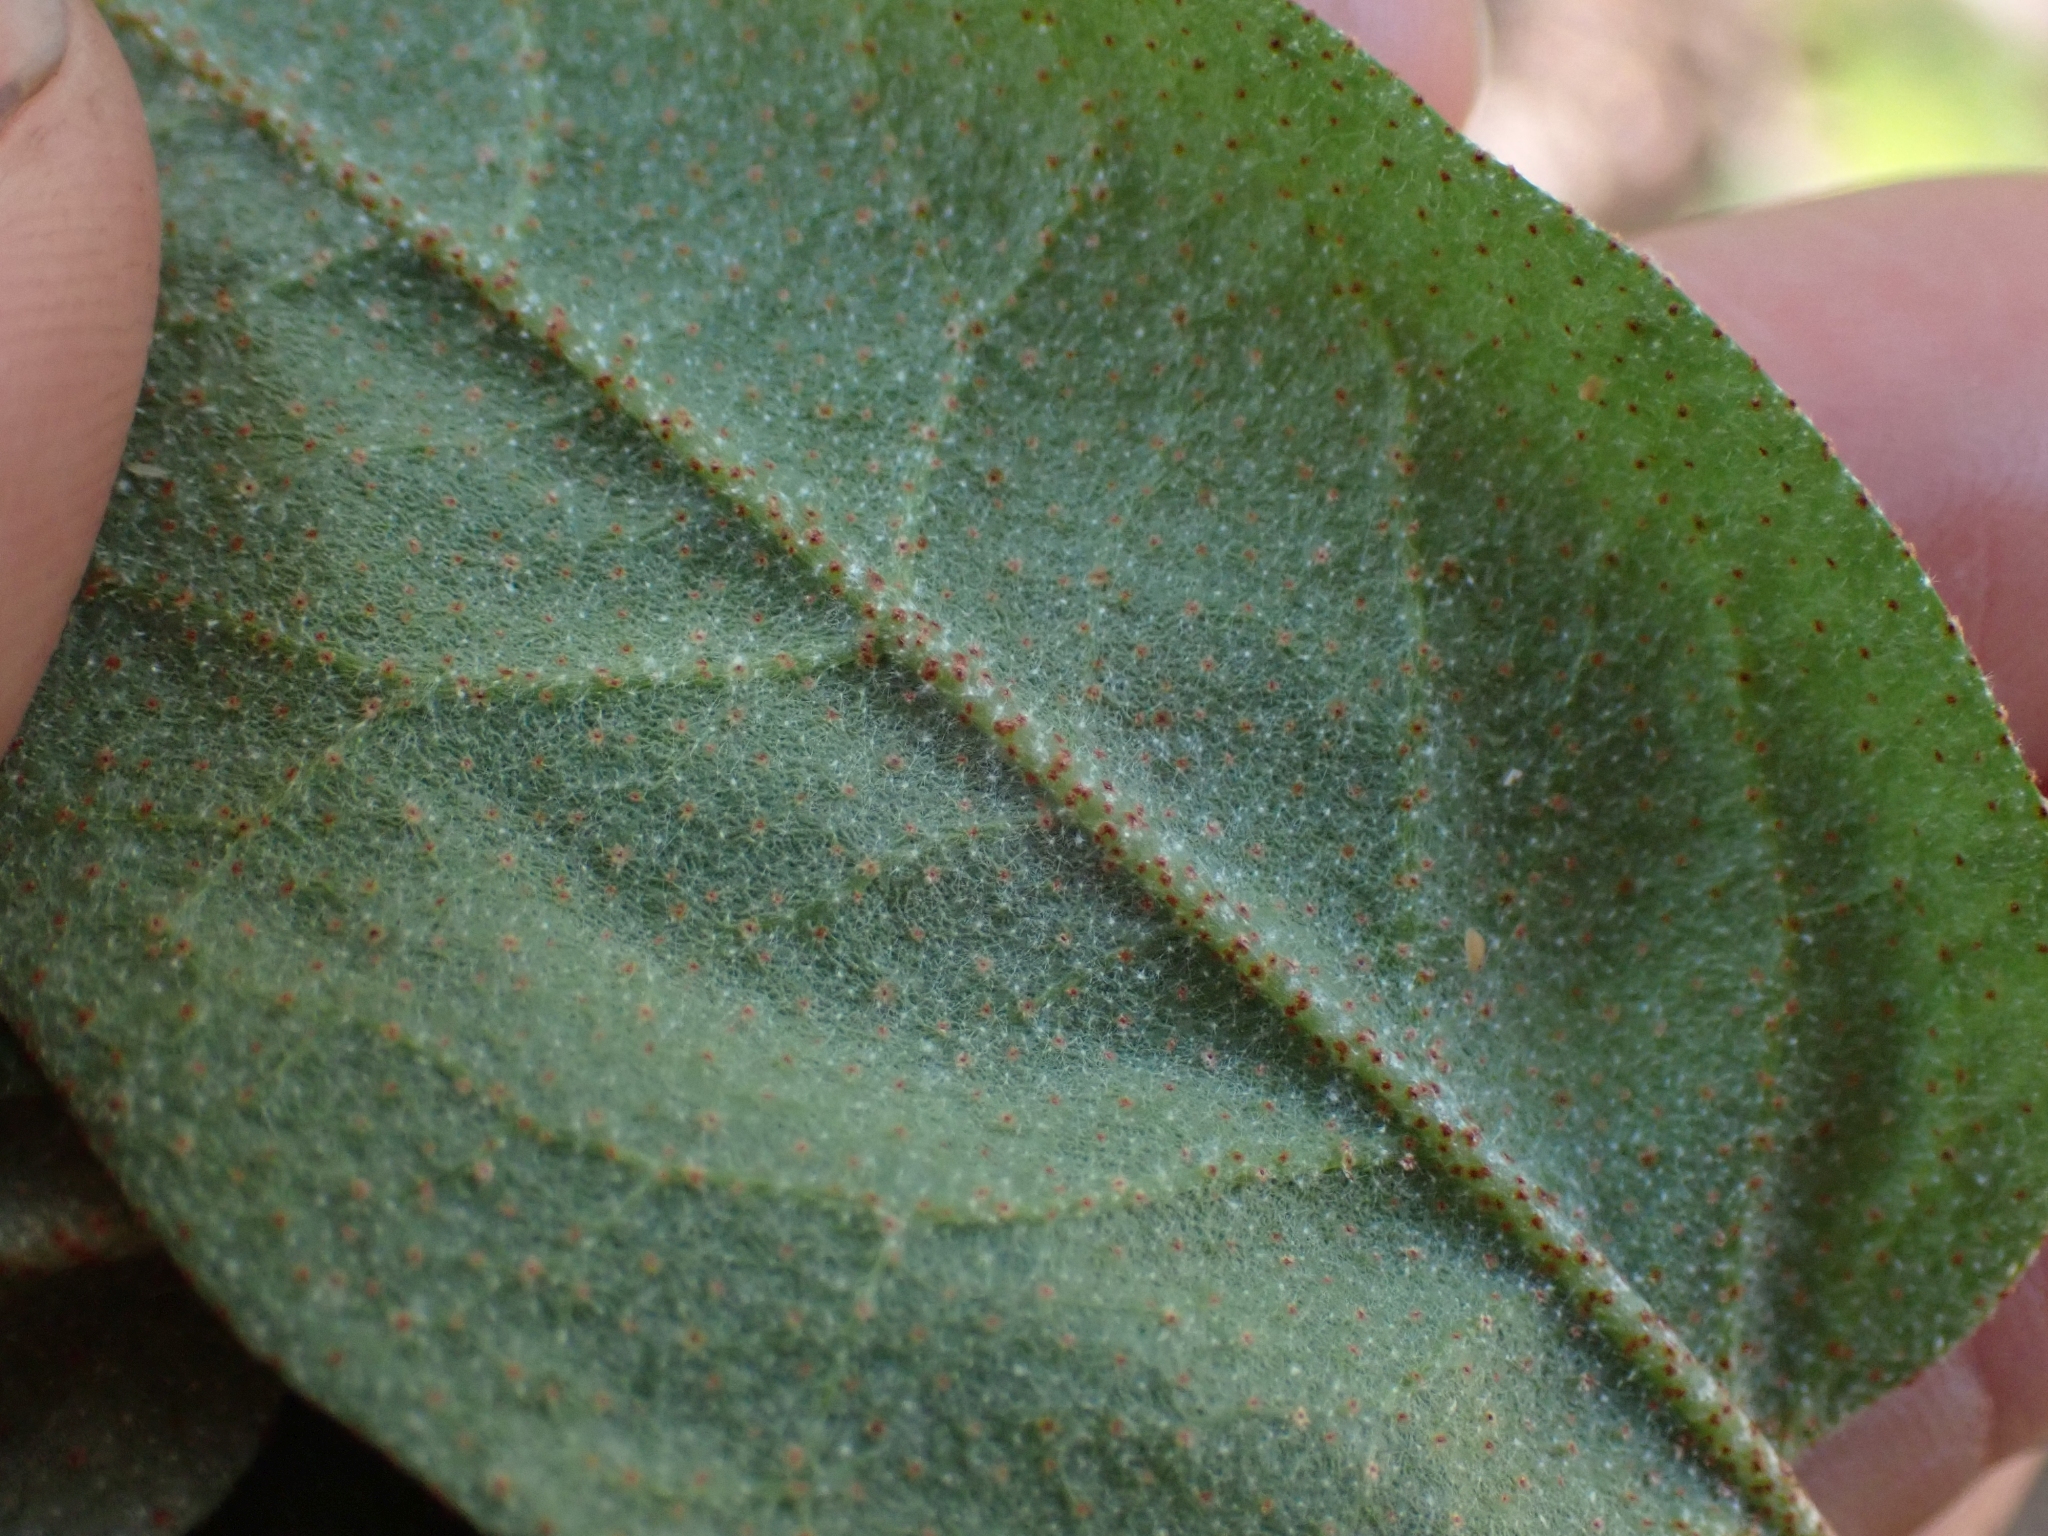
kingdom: Plantae
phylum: Tracheophyta
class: Magnoliopsida
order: Rosales
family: Elaeagnaceae
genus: Shepherdia
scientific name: Shepherdia canadensis
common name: Soapberry
